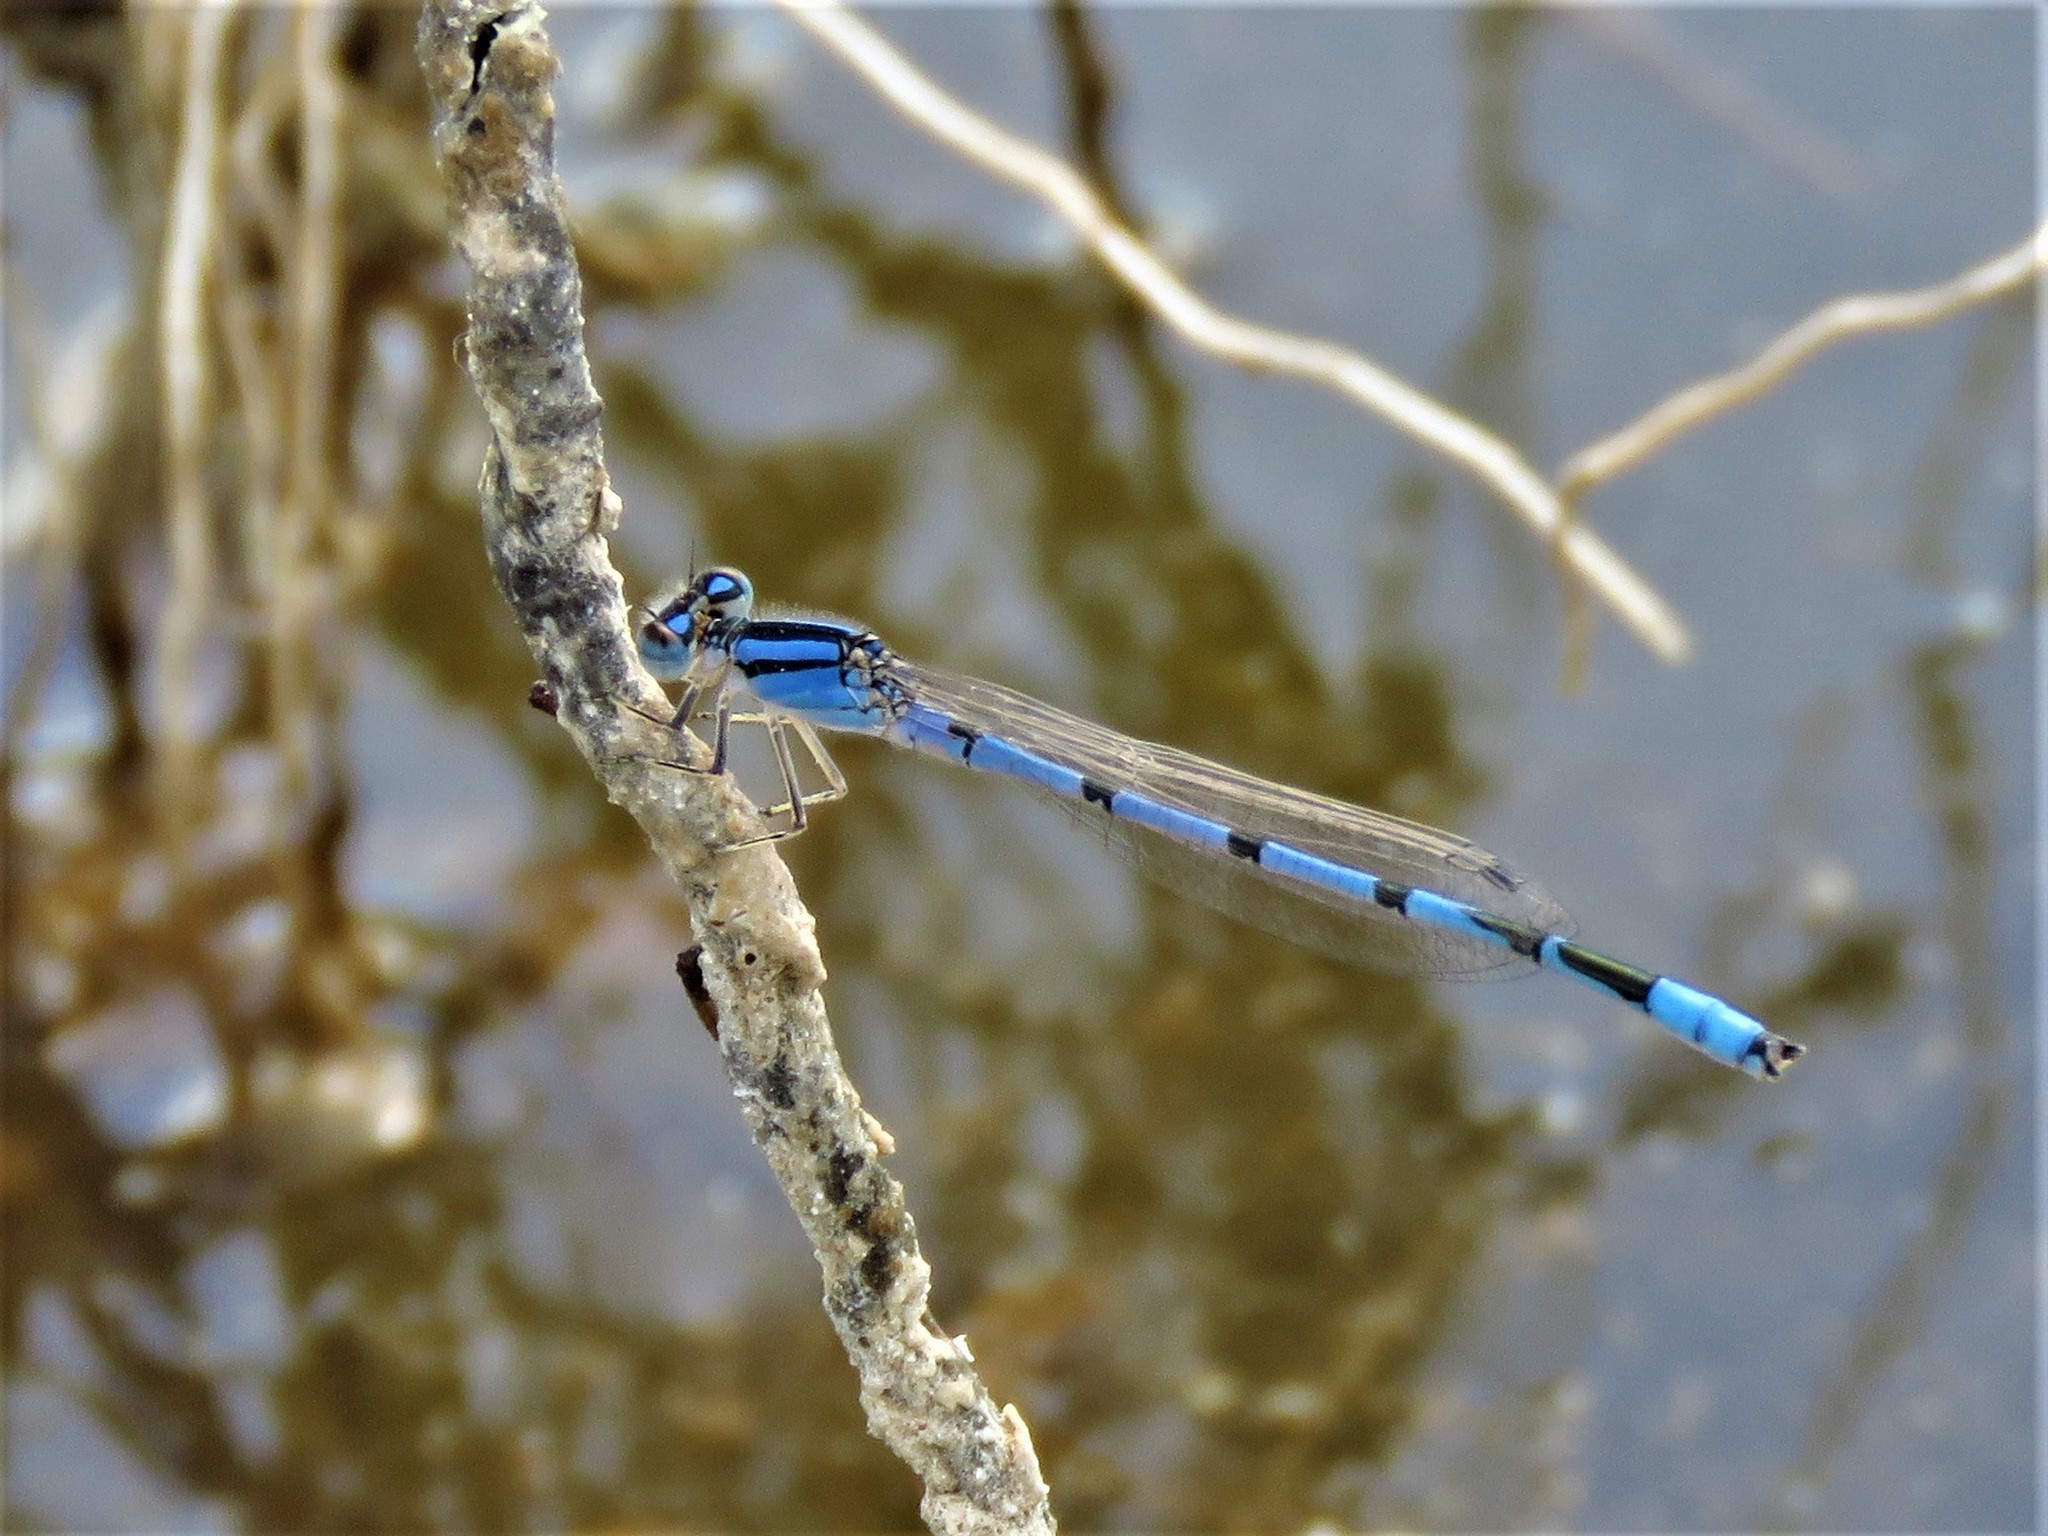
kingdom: Animalia
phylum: Arthropoda
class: Insecta
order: Odonata
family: Coenagrionidae
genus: Enallagma
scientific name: Enallagma civile
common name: Damselfly
